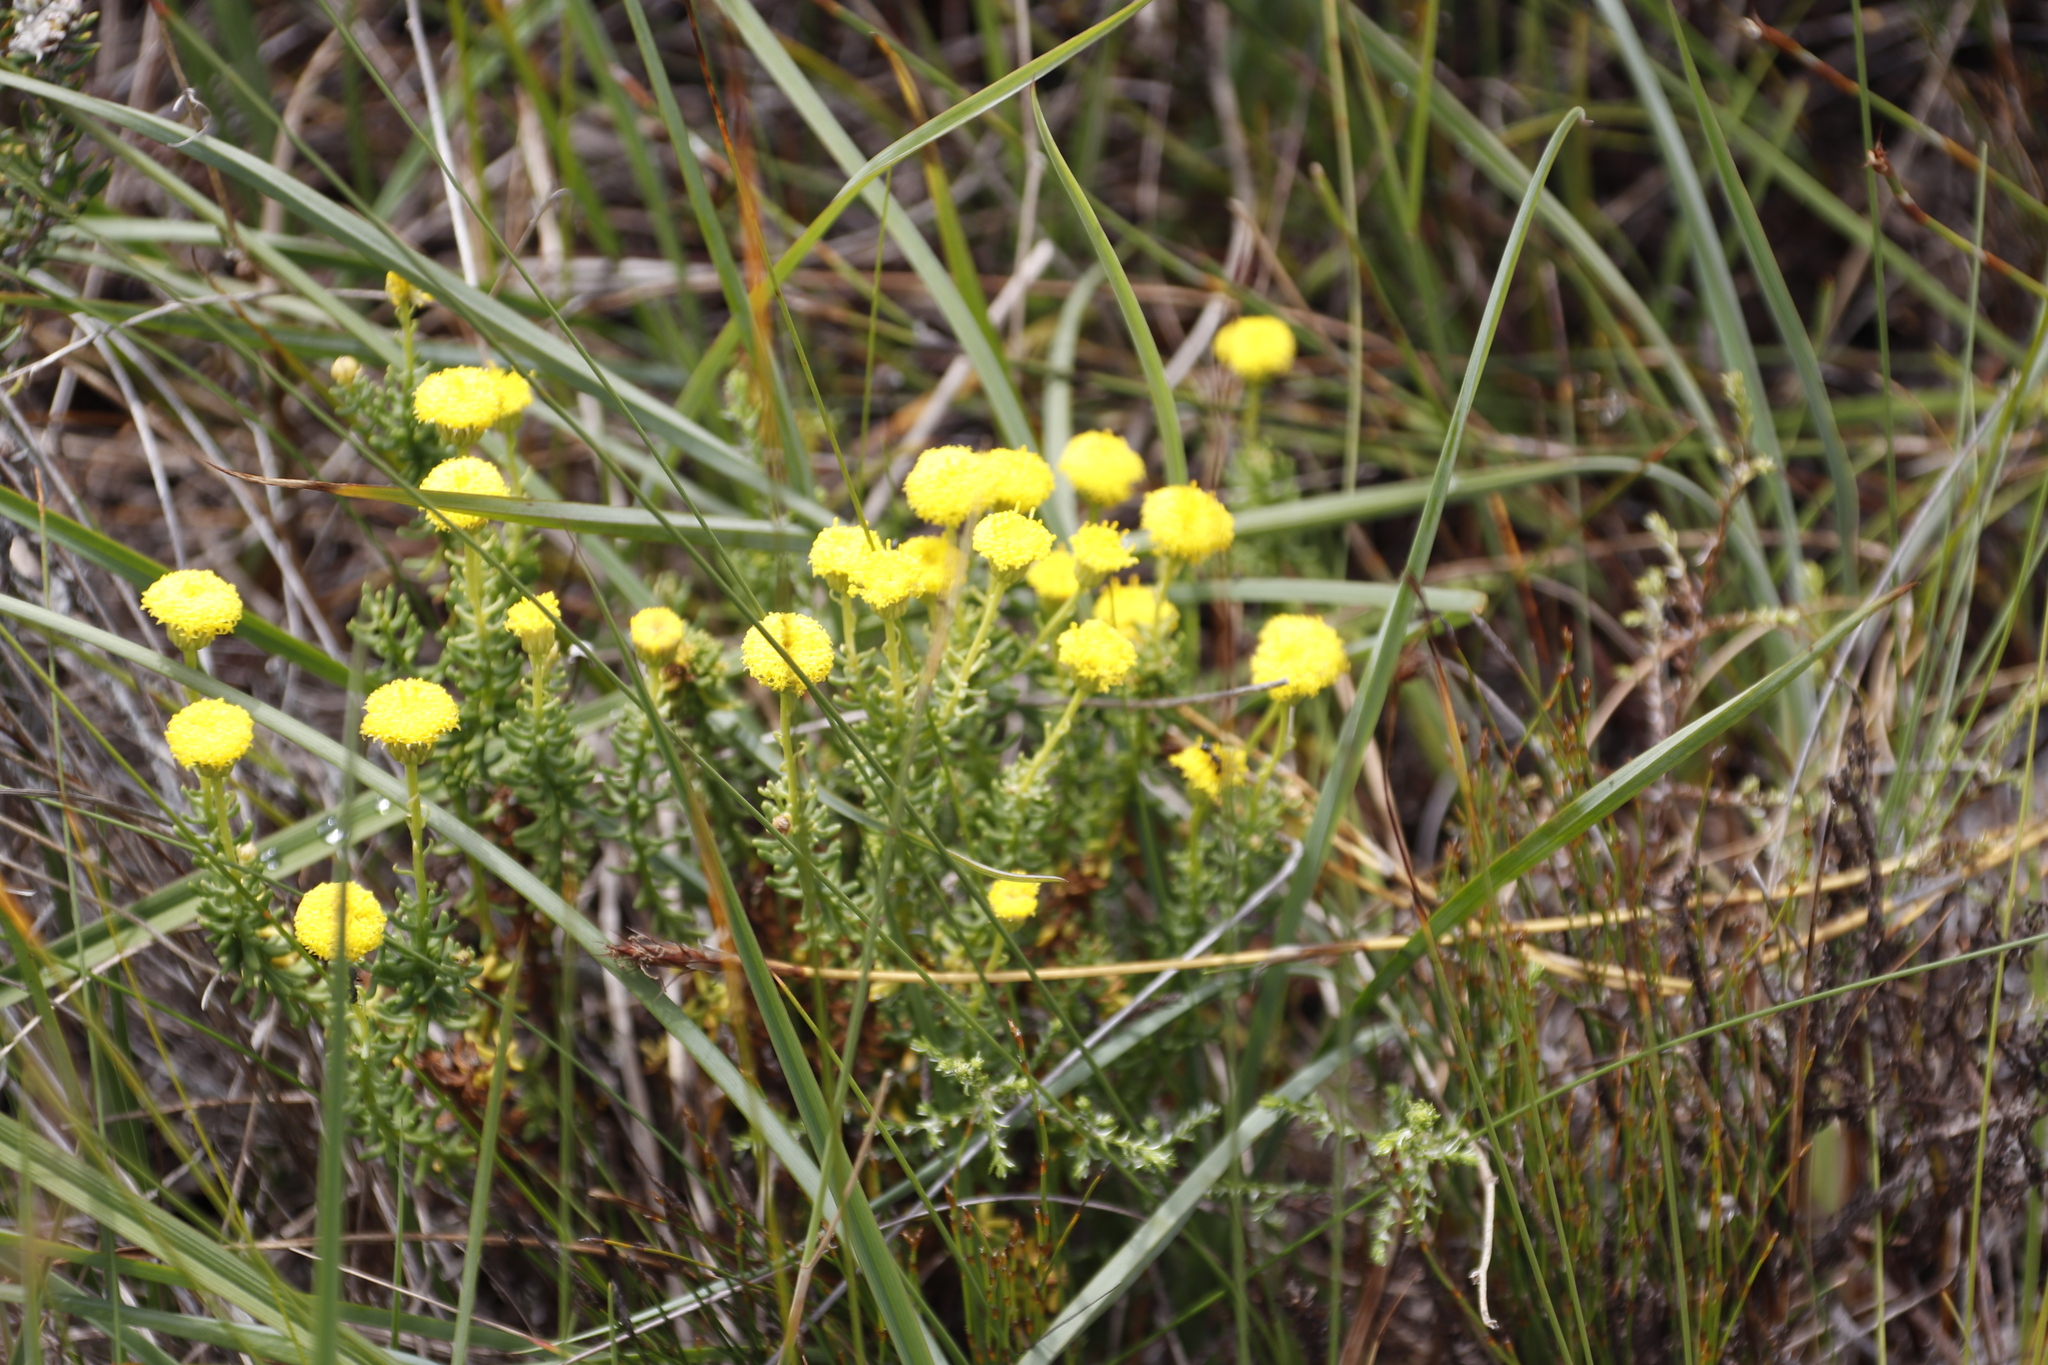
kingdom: Plantae
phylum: Tracheophyta
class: Magnoliopsida
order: Asterales
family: Asteraceae
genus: Chrysocoma
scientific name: Chrysocoma cernua
